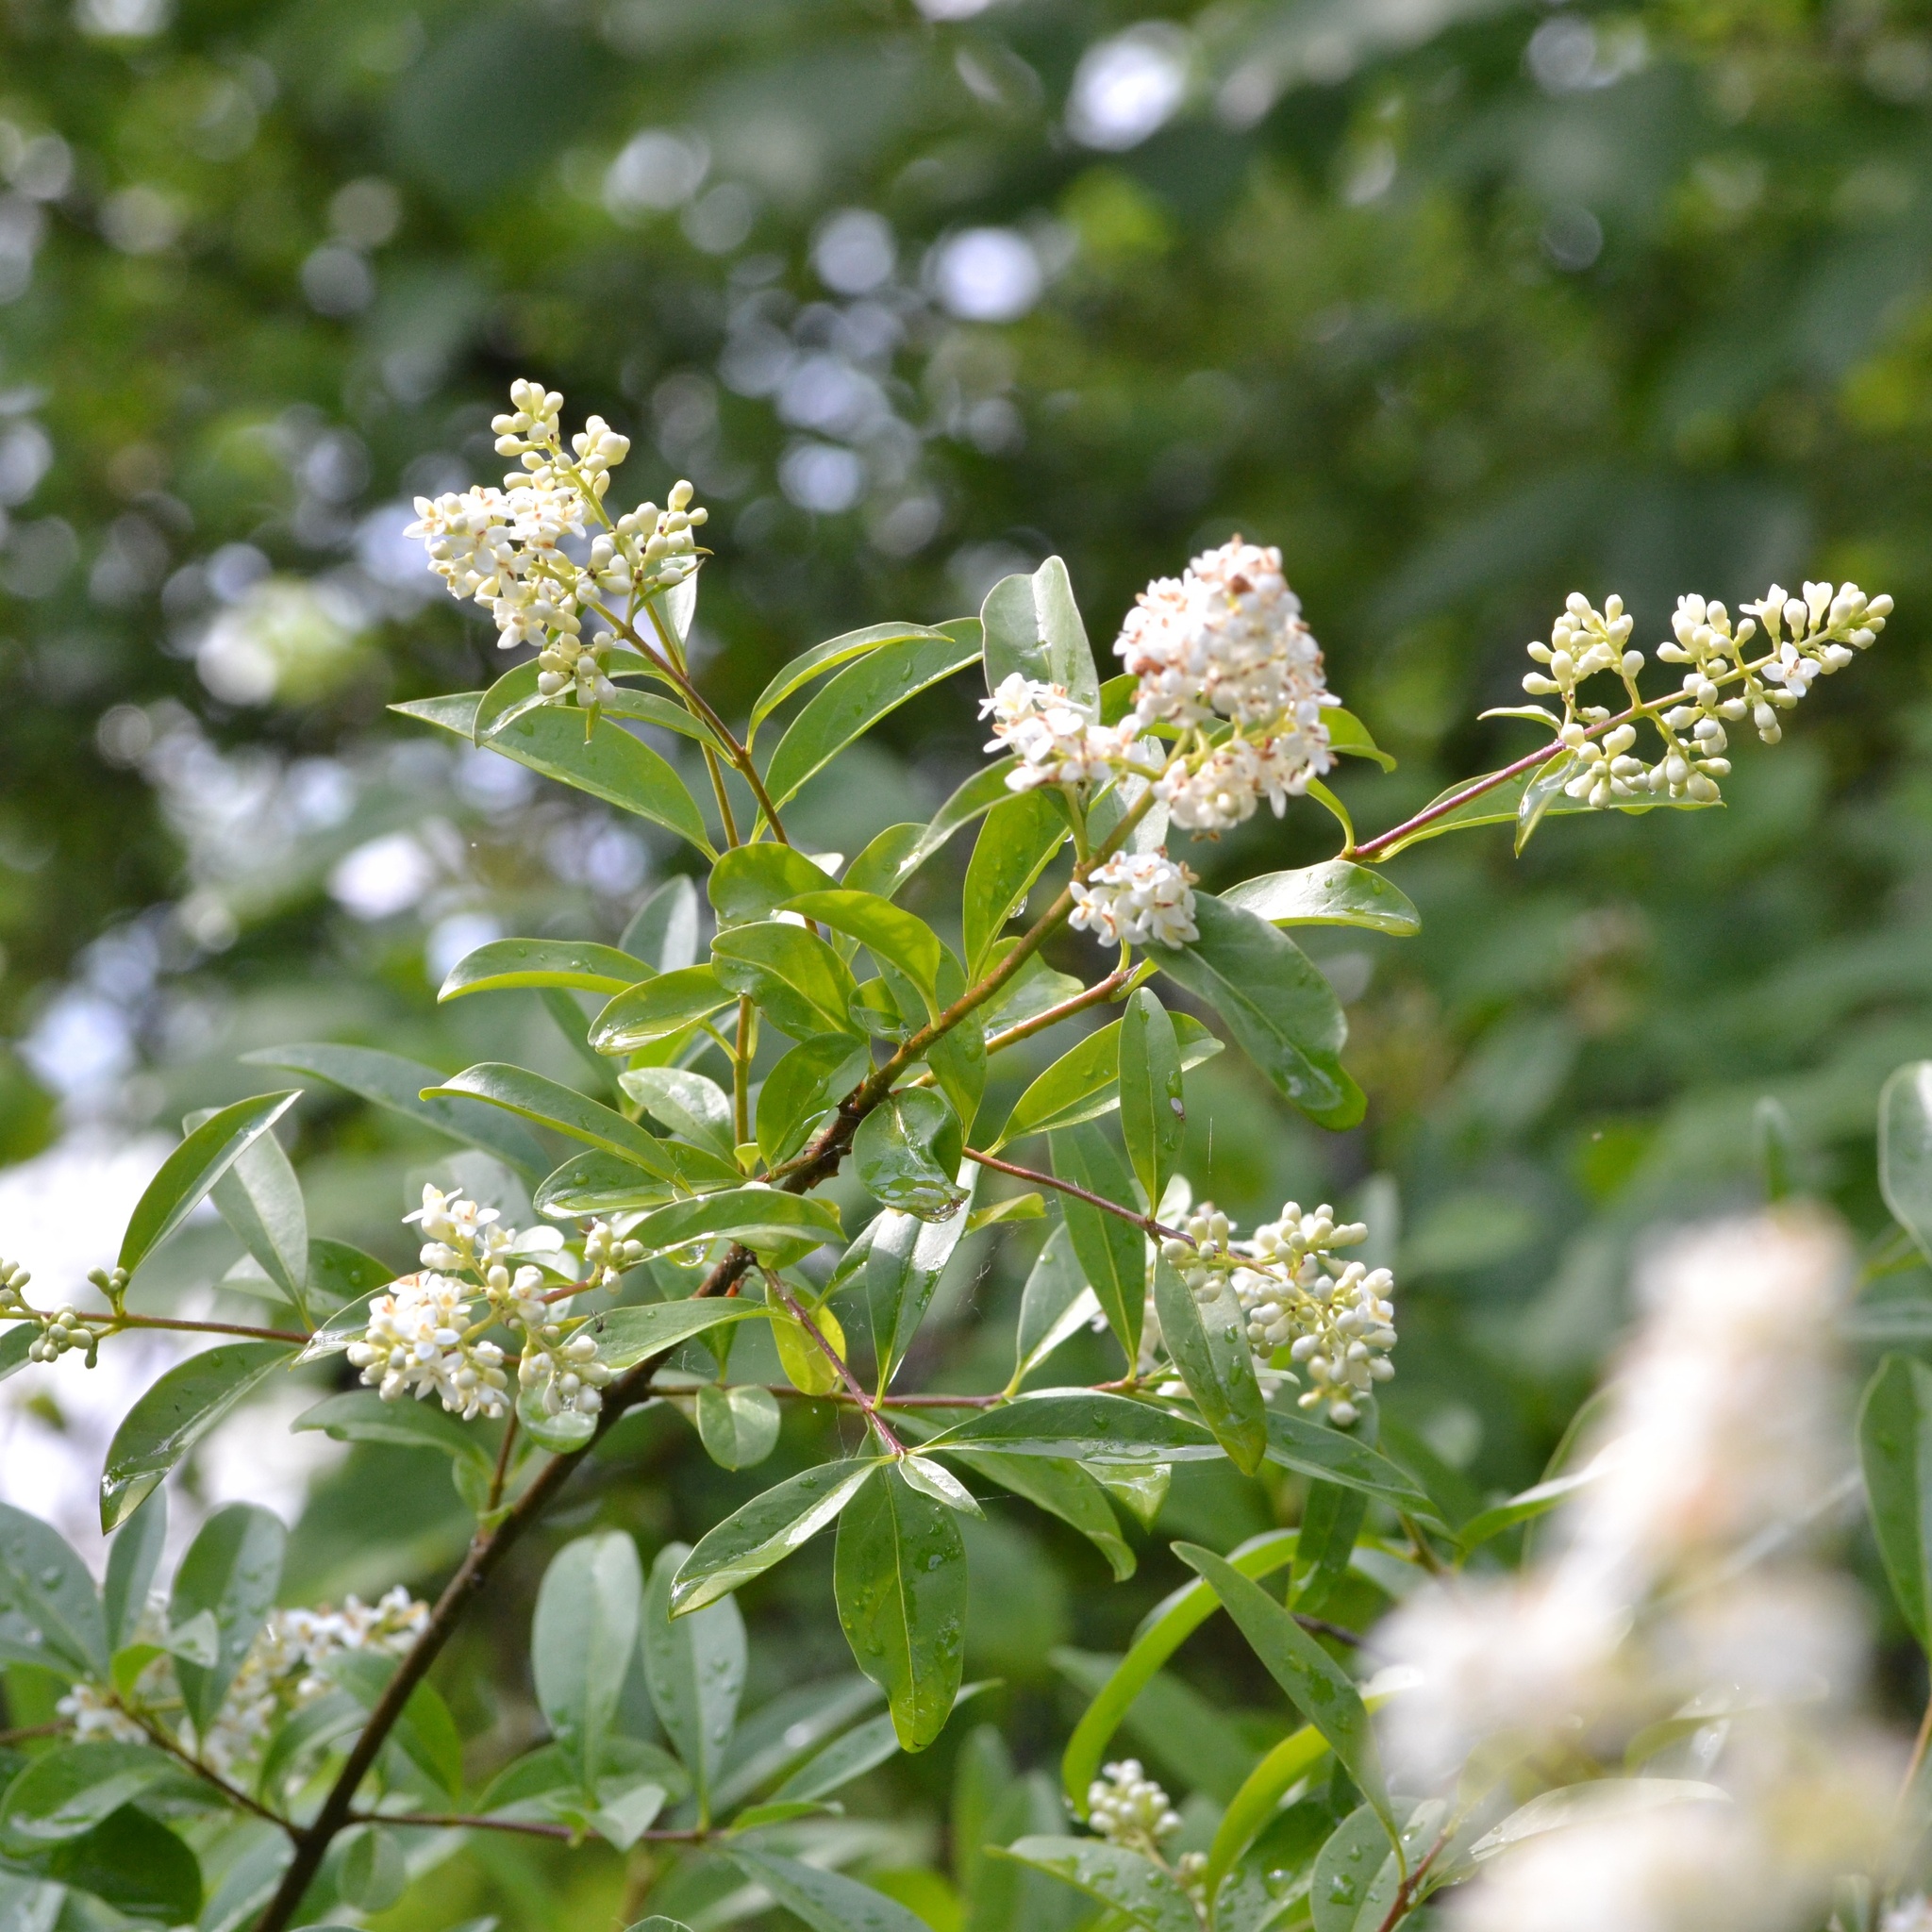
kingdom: Plantae
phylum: Tracheophyta
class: Magnoliopsida
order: Lamiales
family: Oleaceae
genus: Ligustrum
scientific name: Ligustrum vulgare
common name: Wild privet
